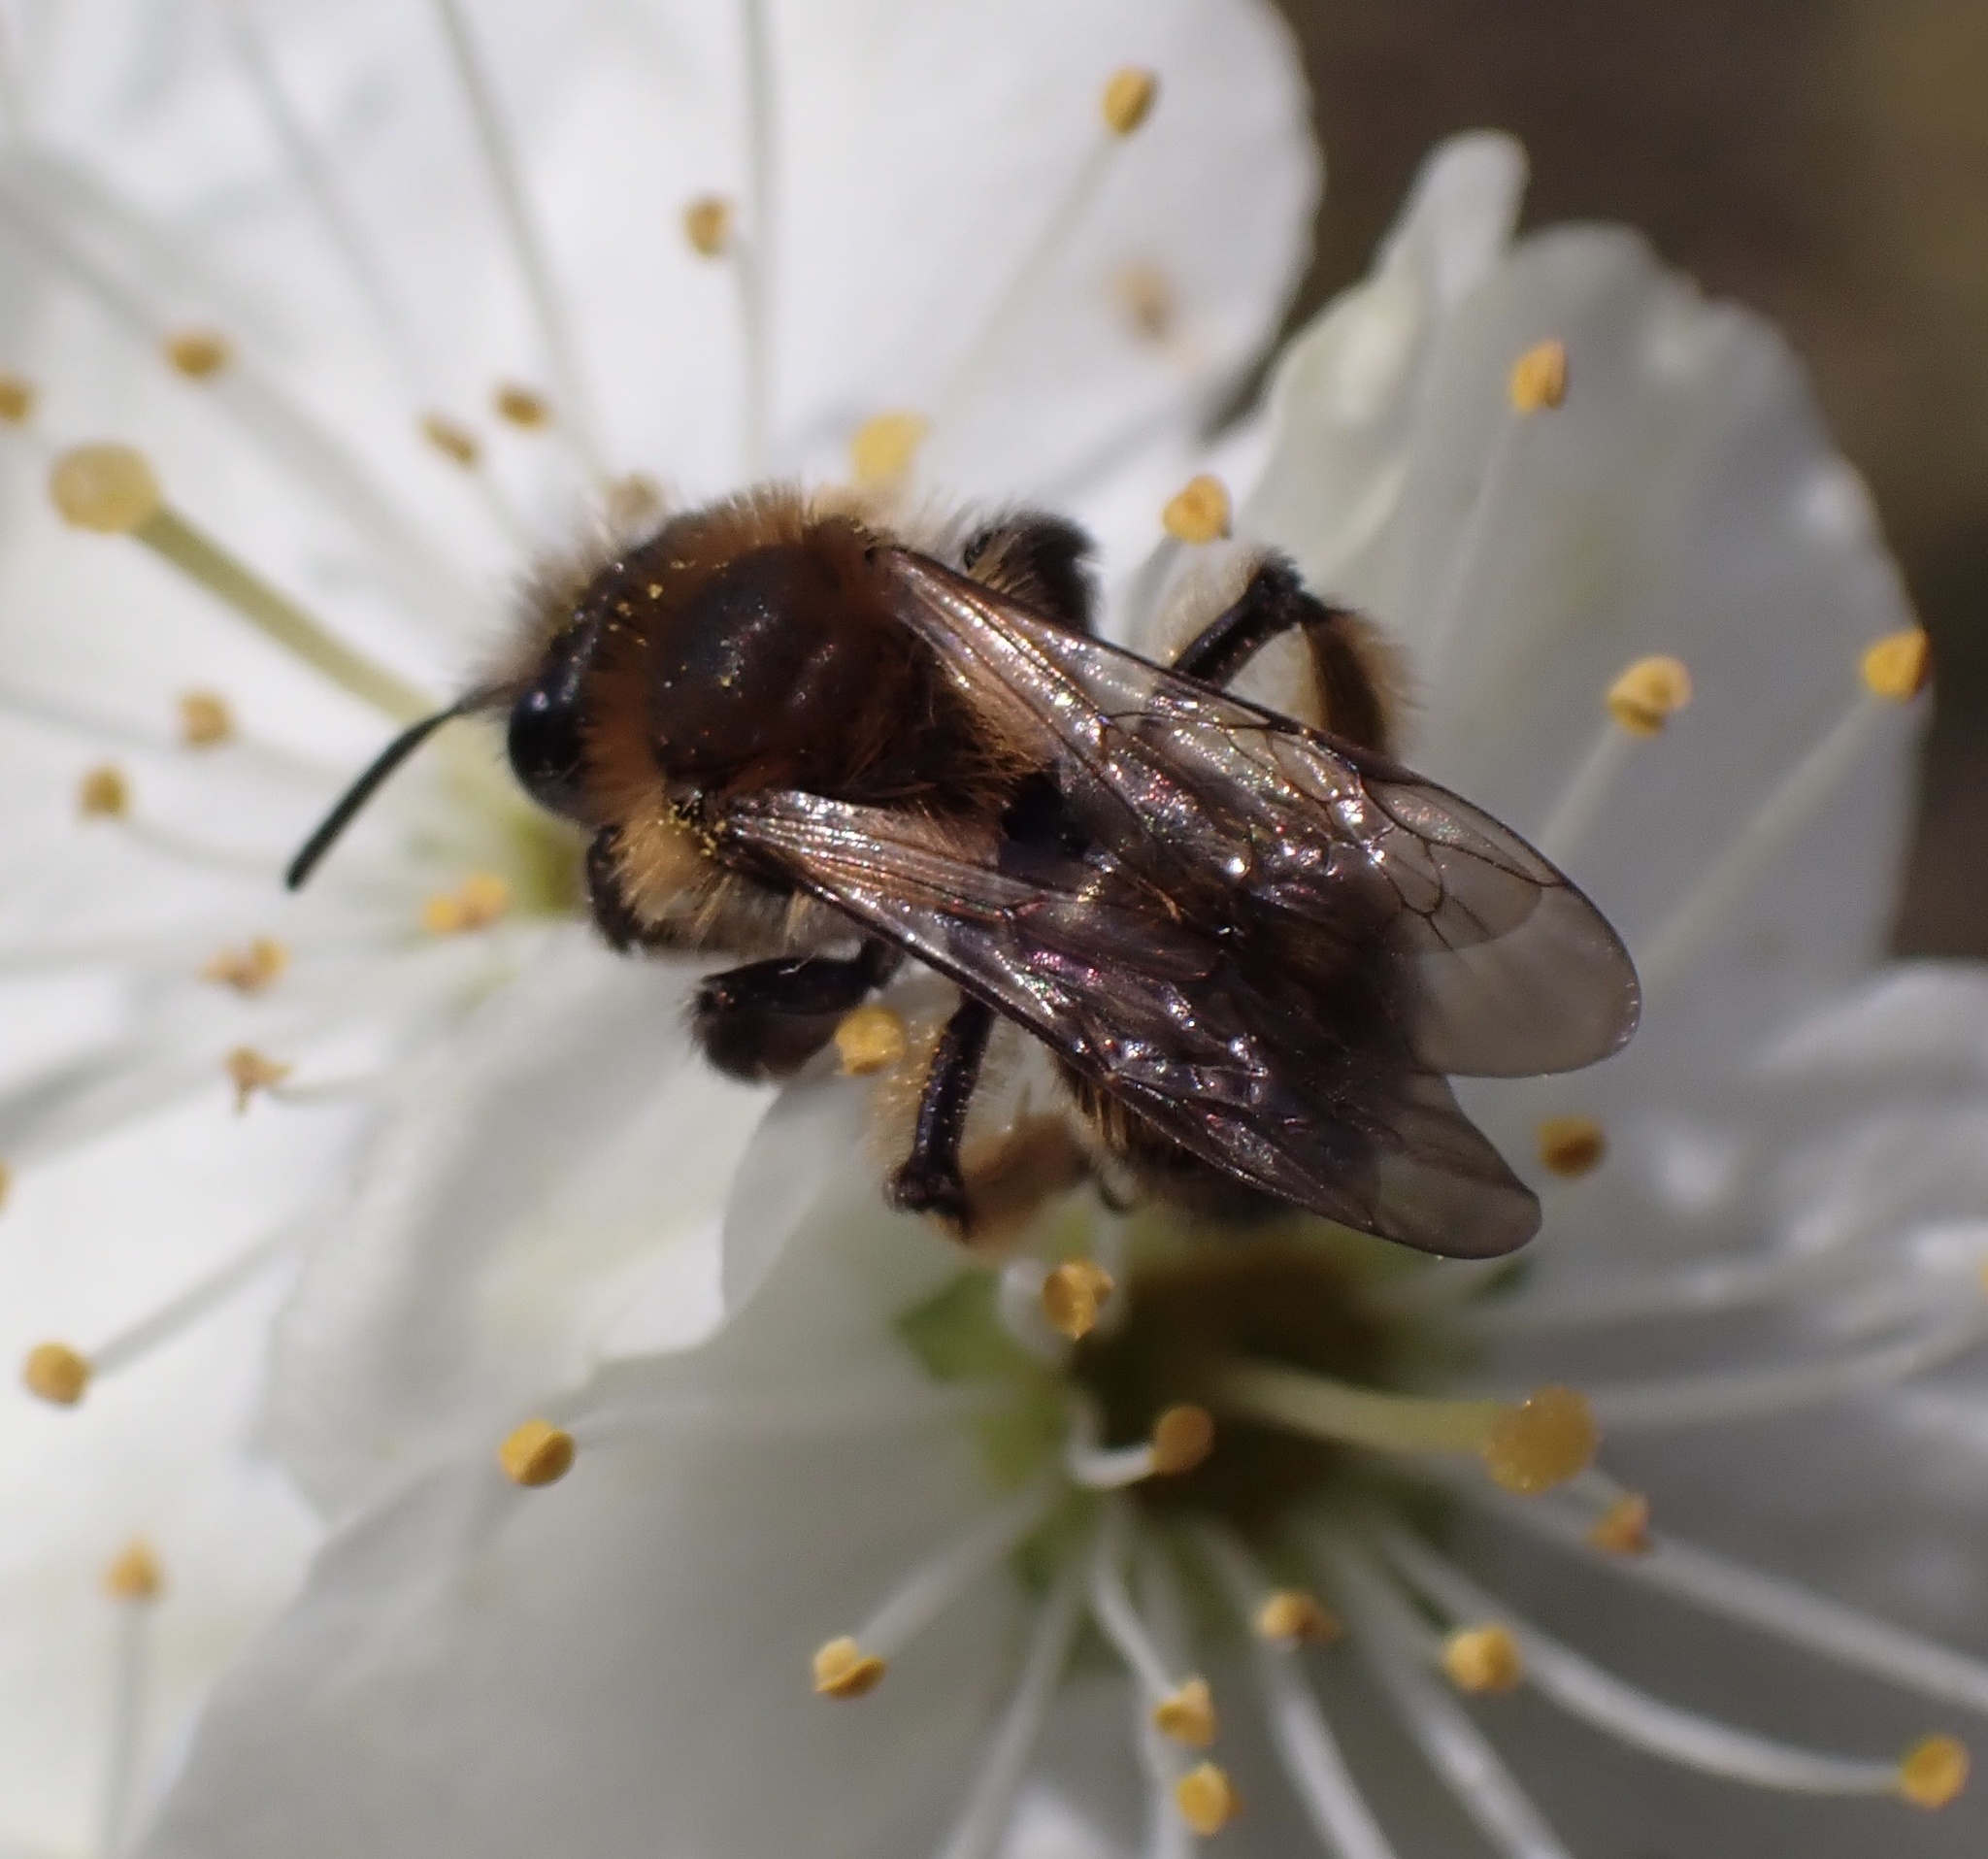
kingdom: Animalia
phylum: Arthropoda
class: Insecta
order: Hymenoptera
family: Andrenidae
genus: Andrena
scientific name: Andrena bicolor
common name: Gwynne's mining bee
